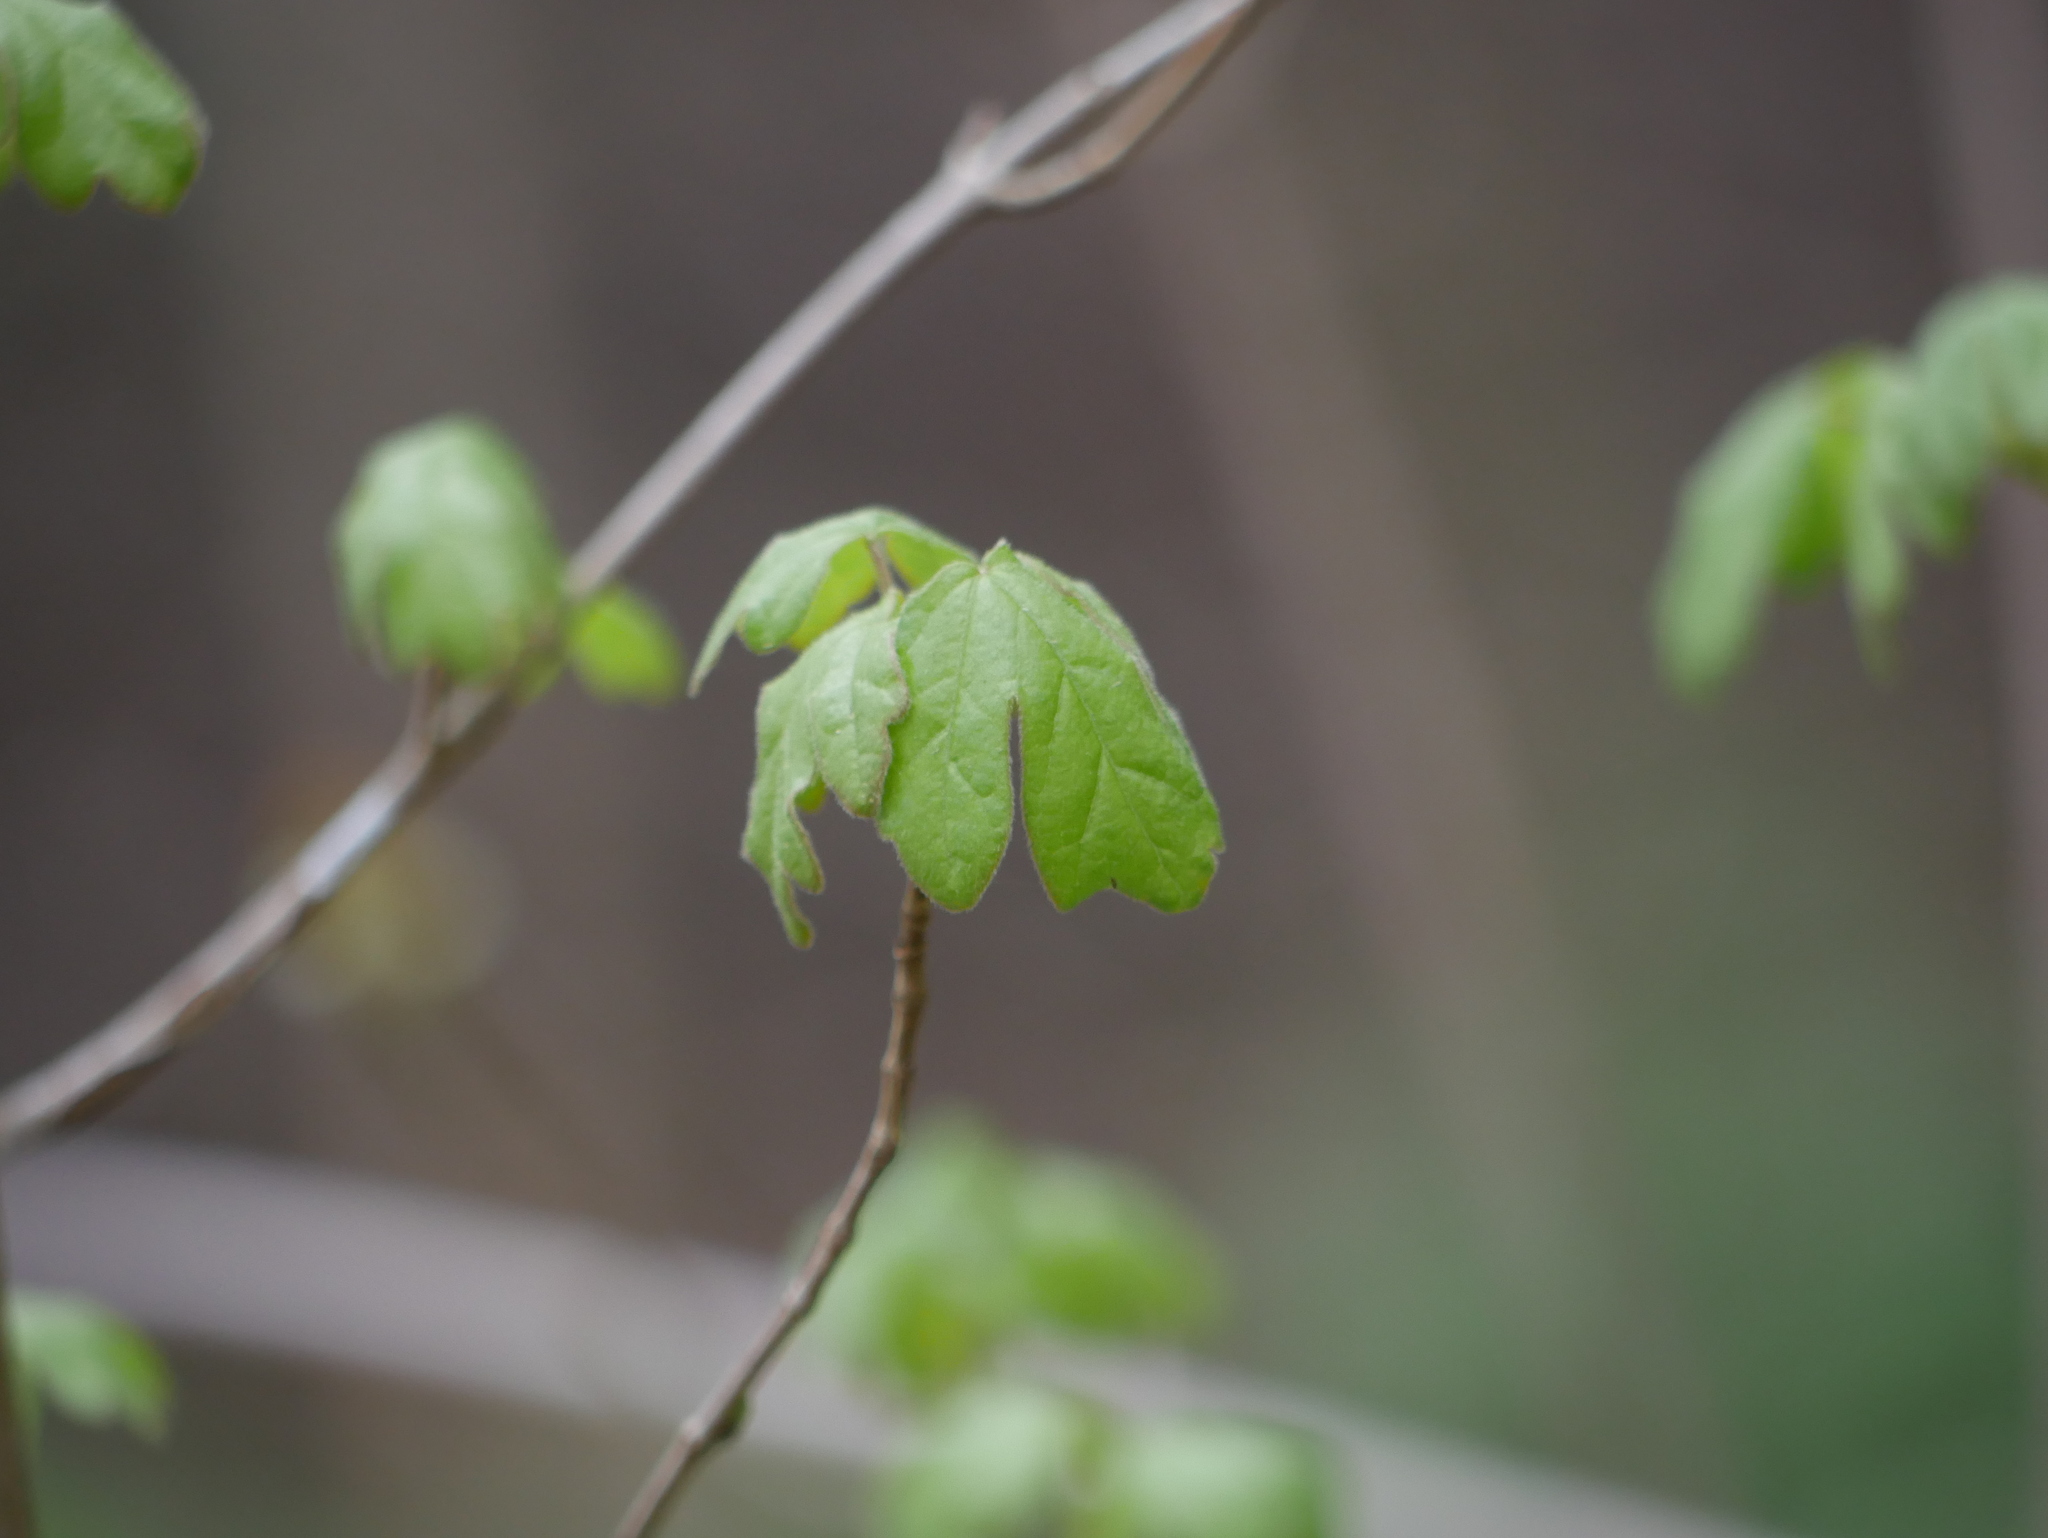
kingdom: Plantae
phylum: Tracheophyta
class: Magnoliopsida
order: Sapindales
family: Sapindaceae
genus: Acer
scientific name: Acer campestre
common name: Field maple
